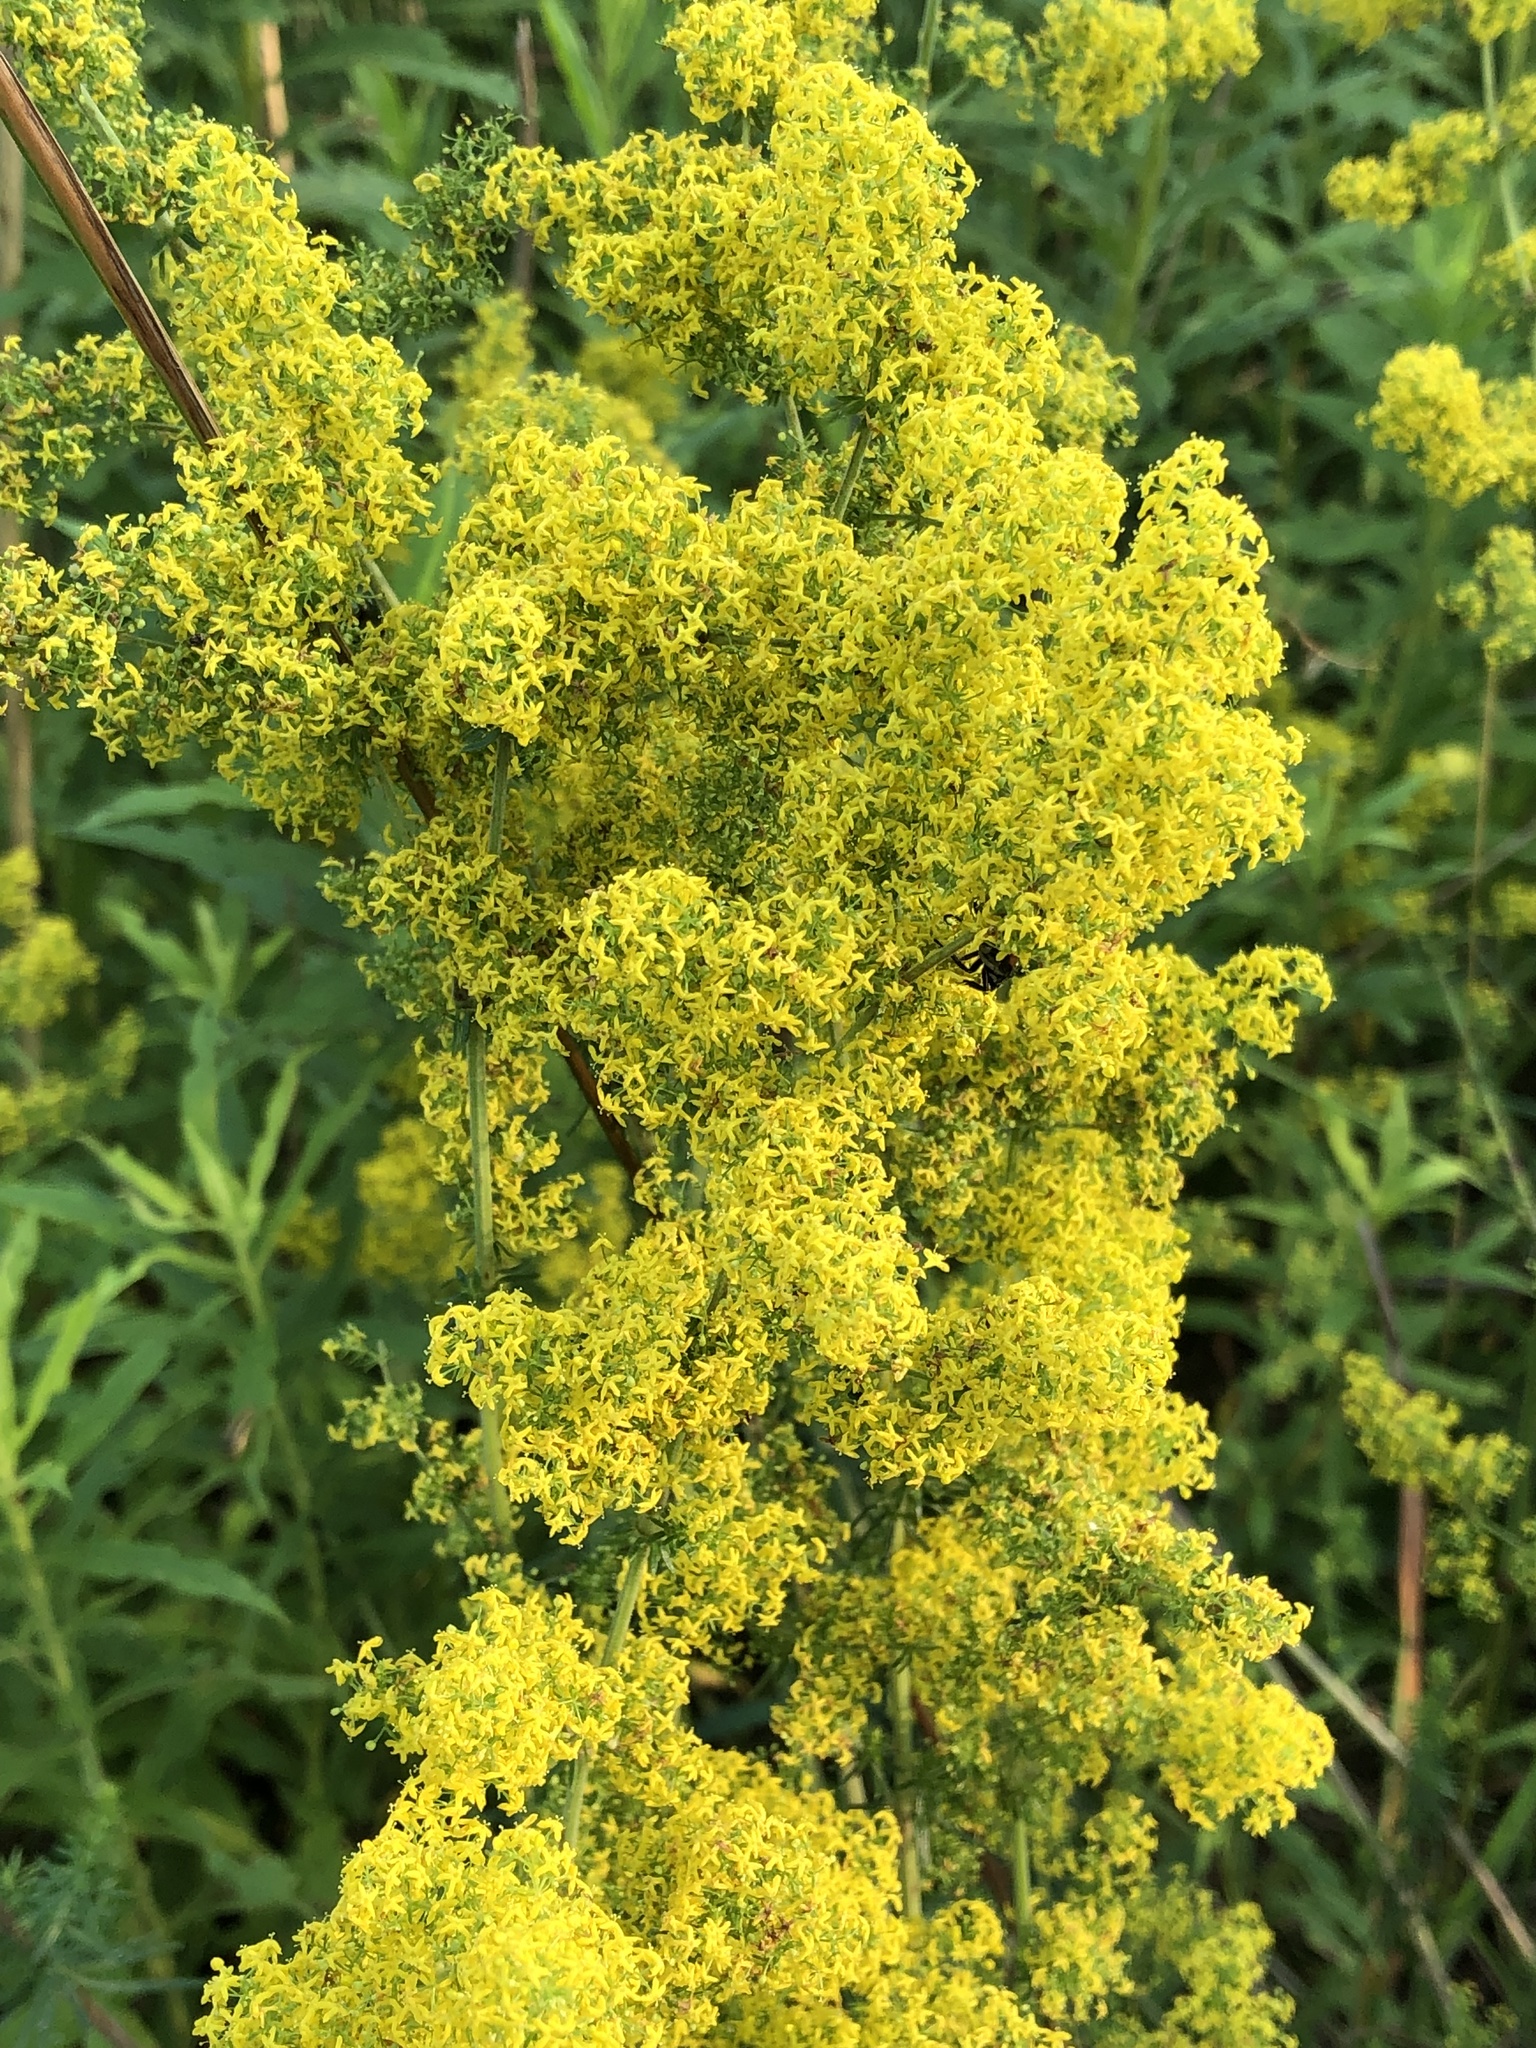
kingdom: Plantae
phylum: Tracheophyta
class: Magnoliopsida
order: Gentianales
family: Rubiaceae
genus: Galium
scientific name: Galium verum
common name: Lady's bedstraw
